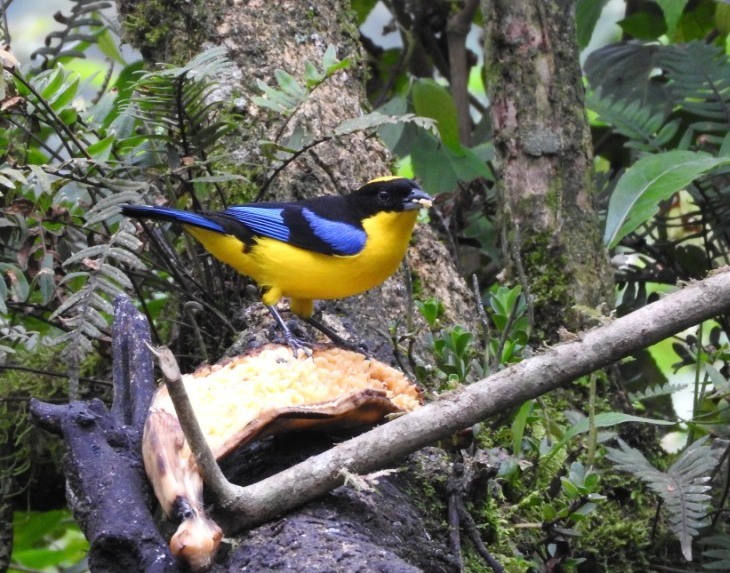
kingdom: Animalia
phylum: Chordata
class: Aves
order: Passeriformes
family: Thraupidae
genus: Anisognathus
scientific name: Anisognathus somptuosus
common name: Blue-winged mountain-tanager
